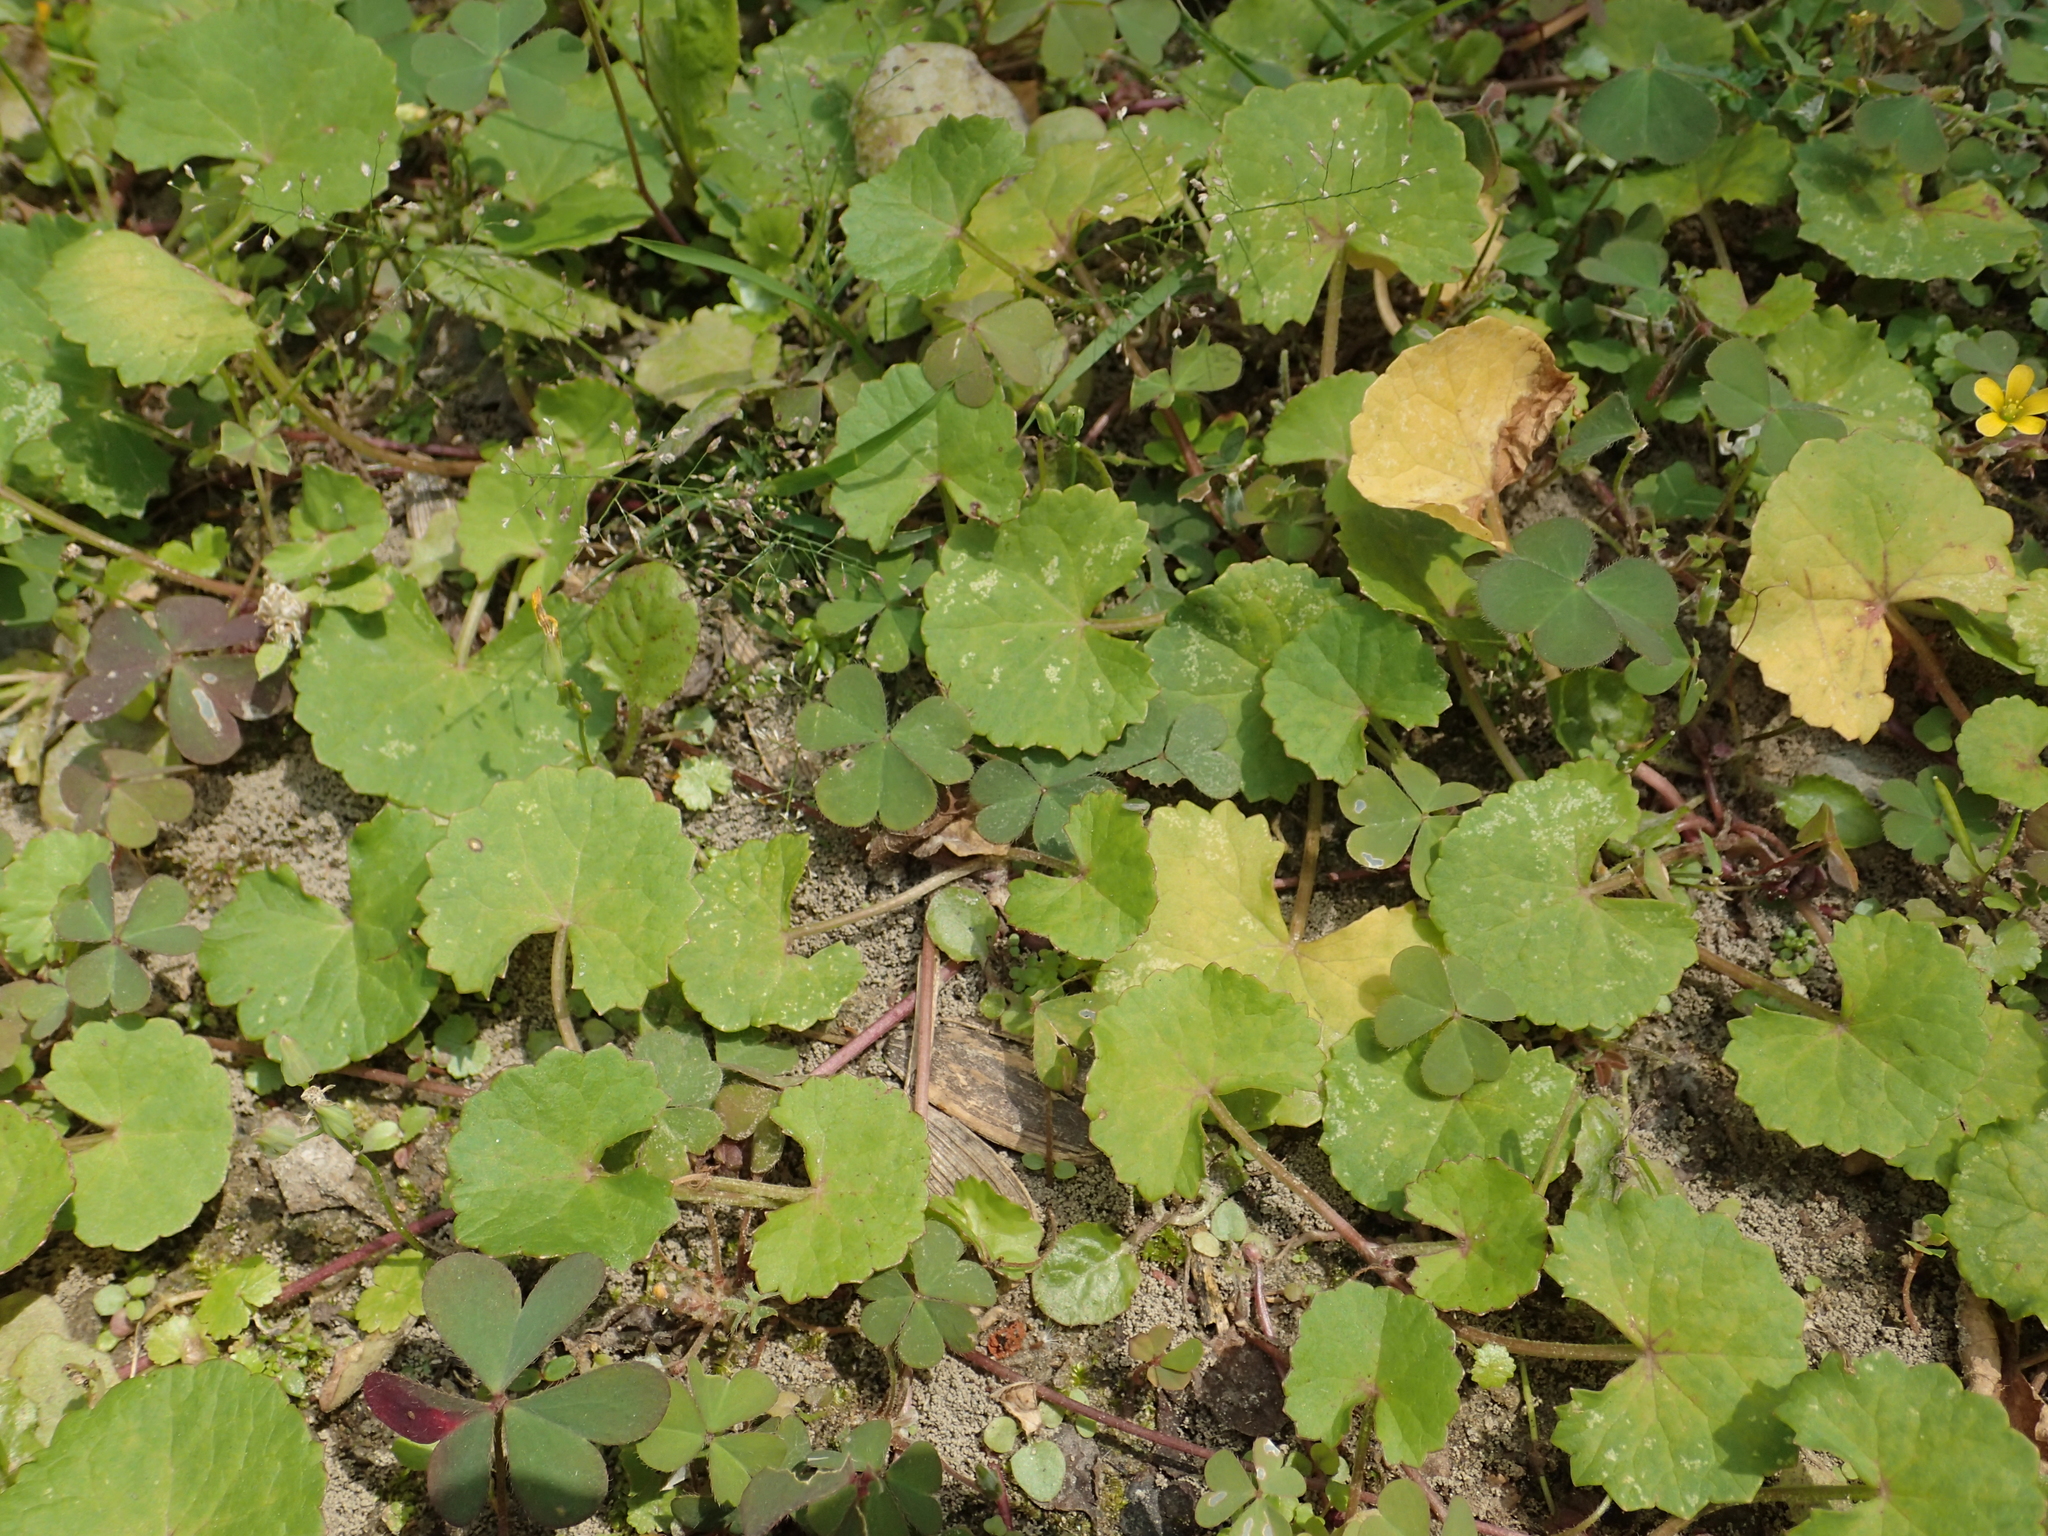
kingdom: Plantae
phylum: Tracheophyta
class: Magnoliopsida
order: Apiales
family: Apiaceae
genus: Centella
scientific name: Centella asiatica
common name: Spadeleaf
